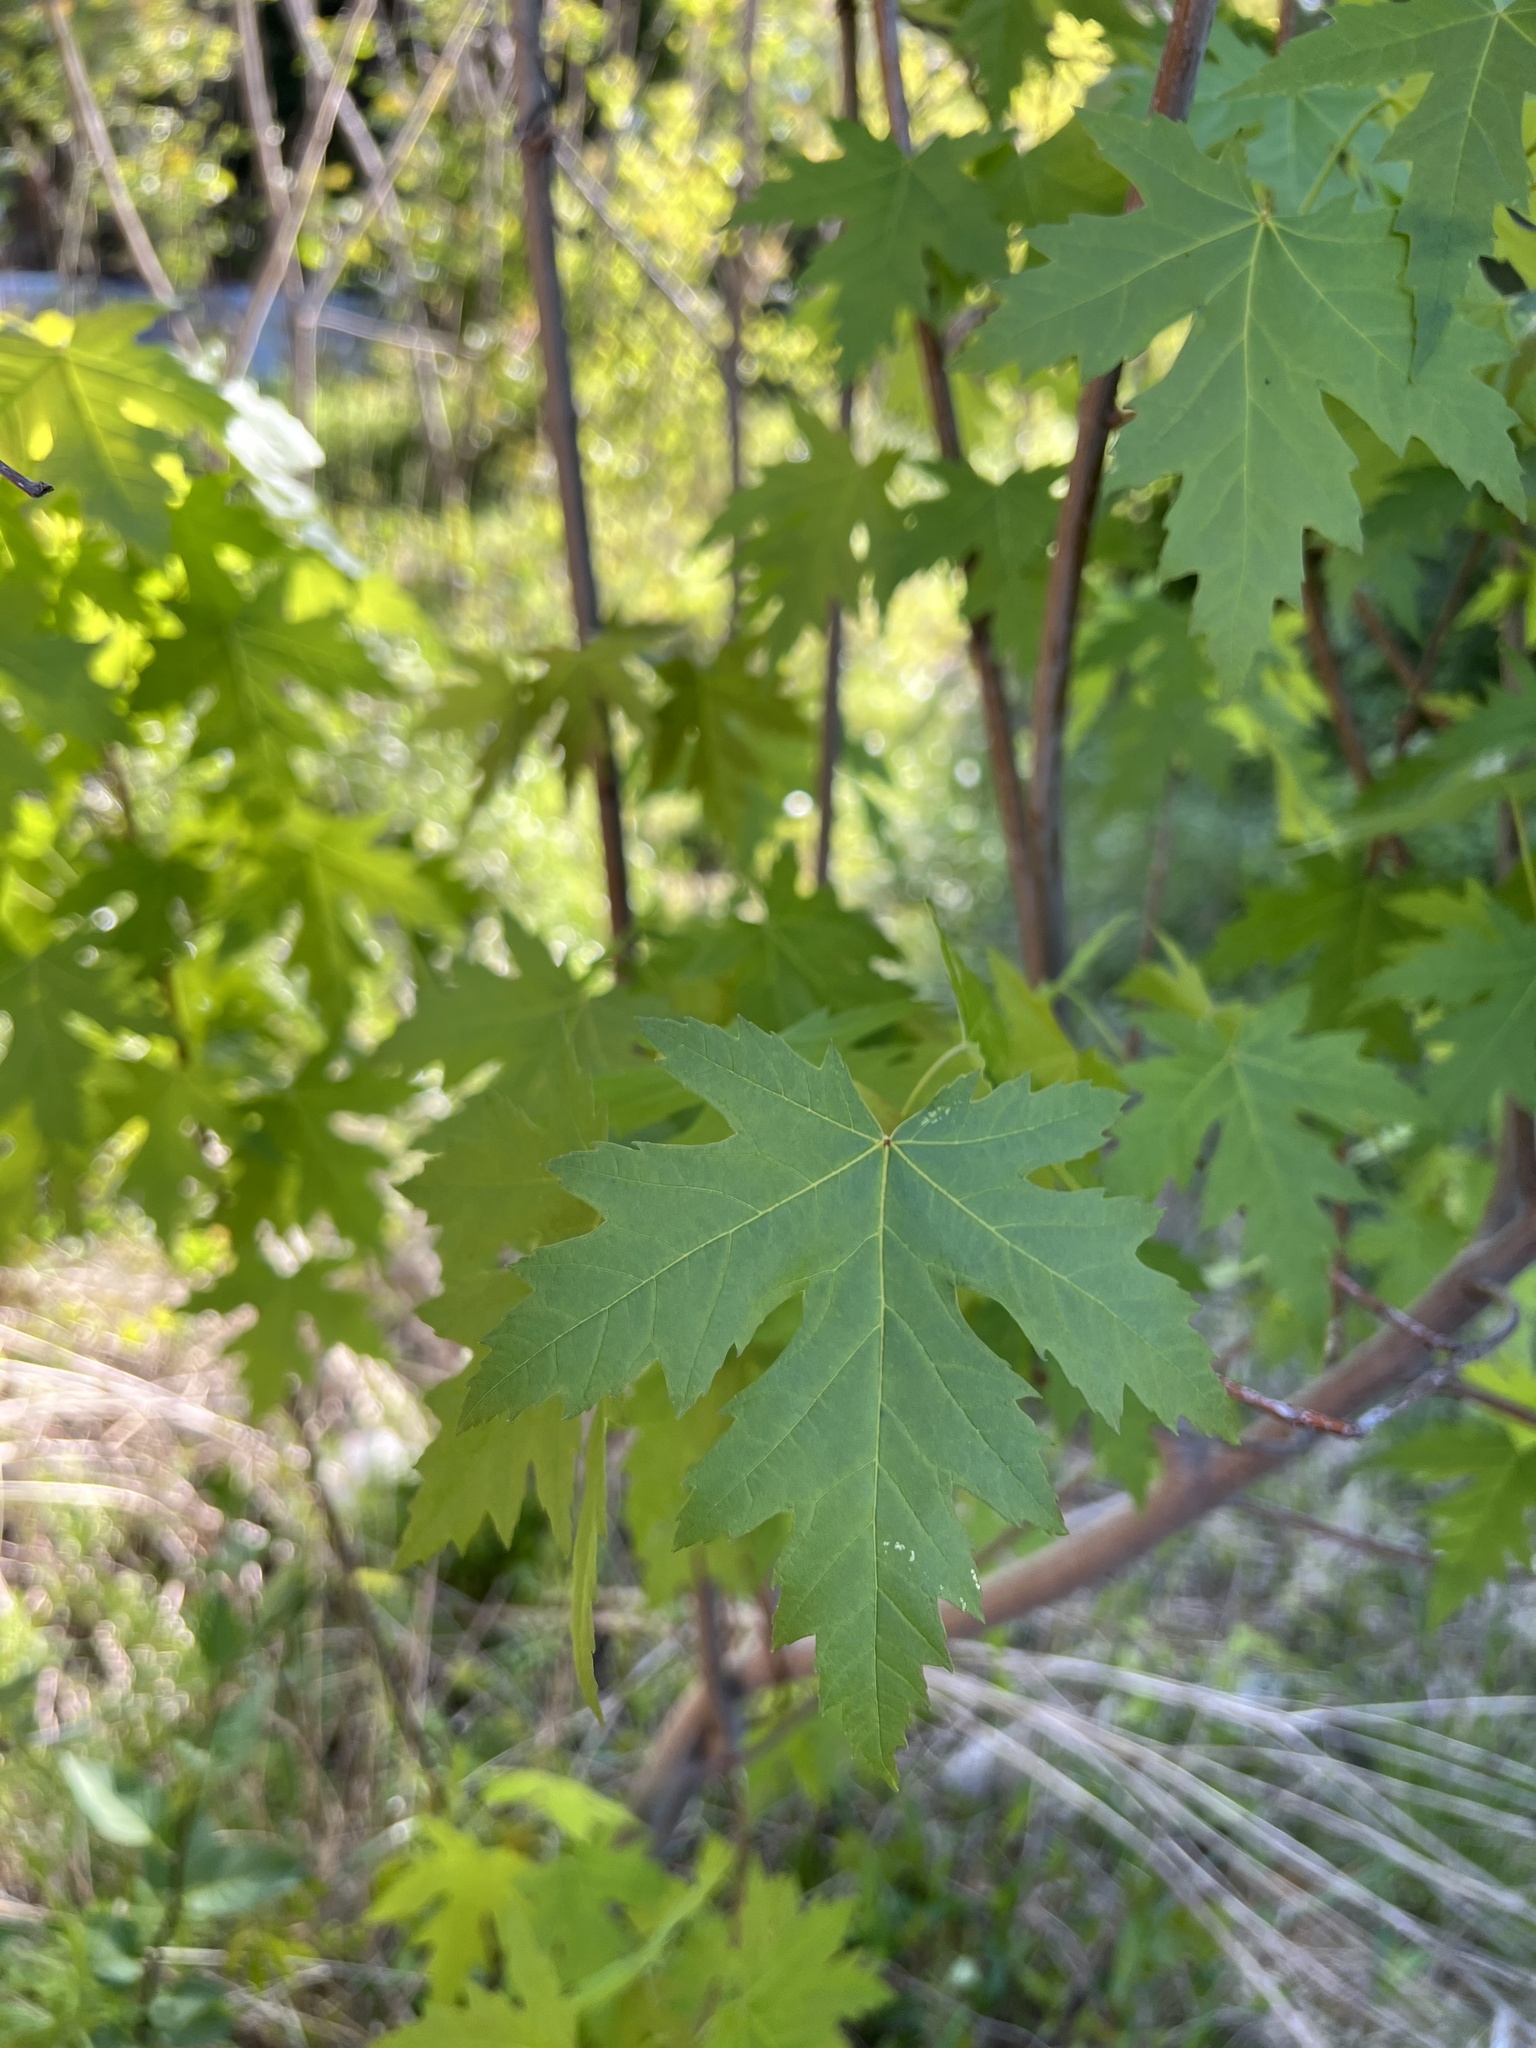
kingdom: Plantae
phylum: Tracheophyta
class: Magnoliopsida
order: Sapindales
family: Sapindaceae
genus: Acer
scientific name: Acer saccharinum
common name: Silver maple
